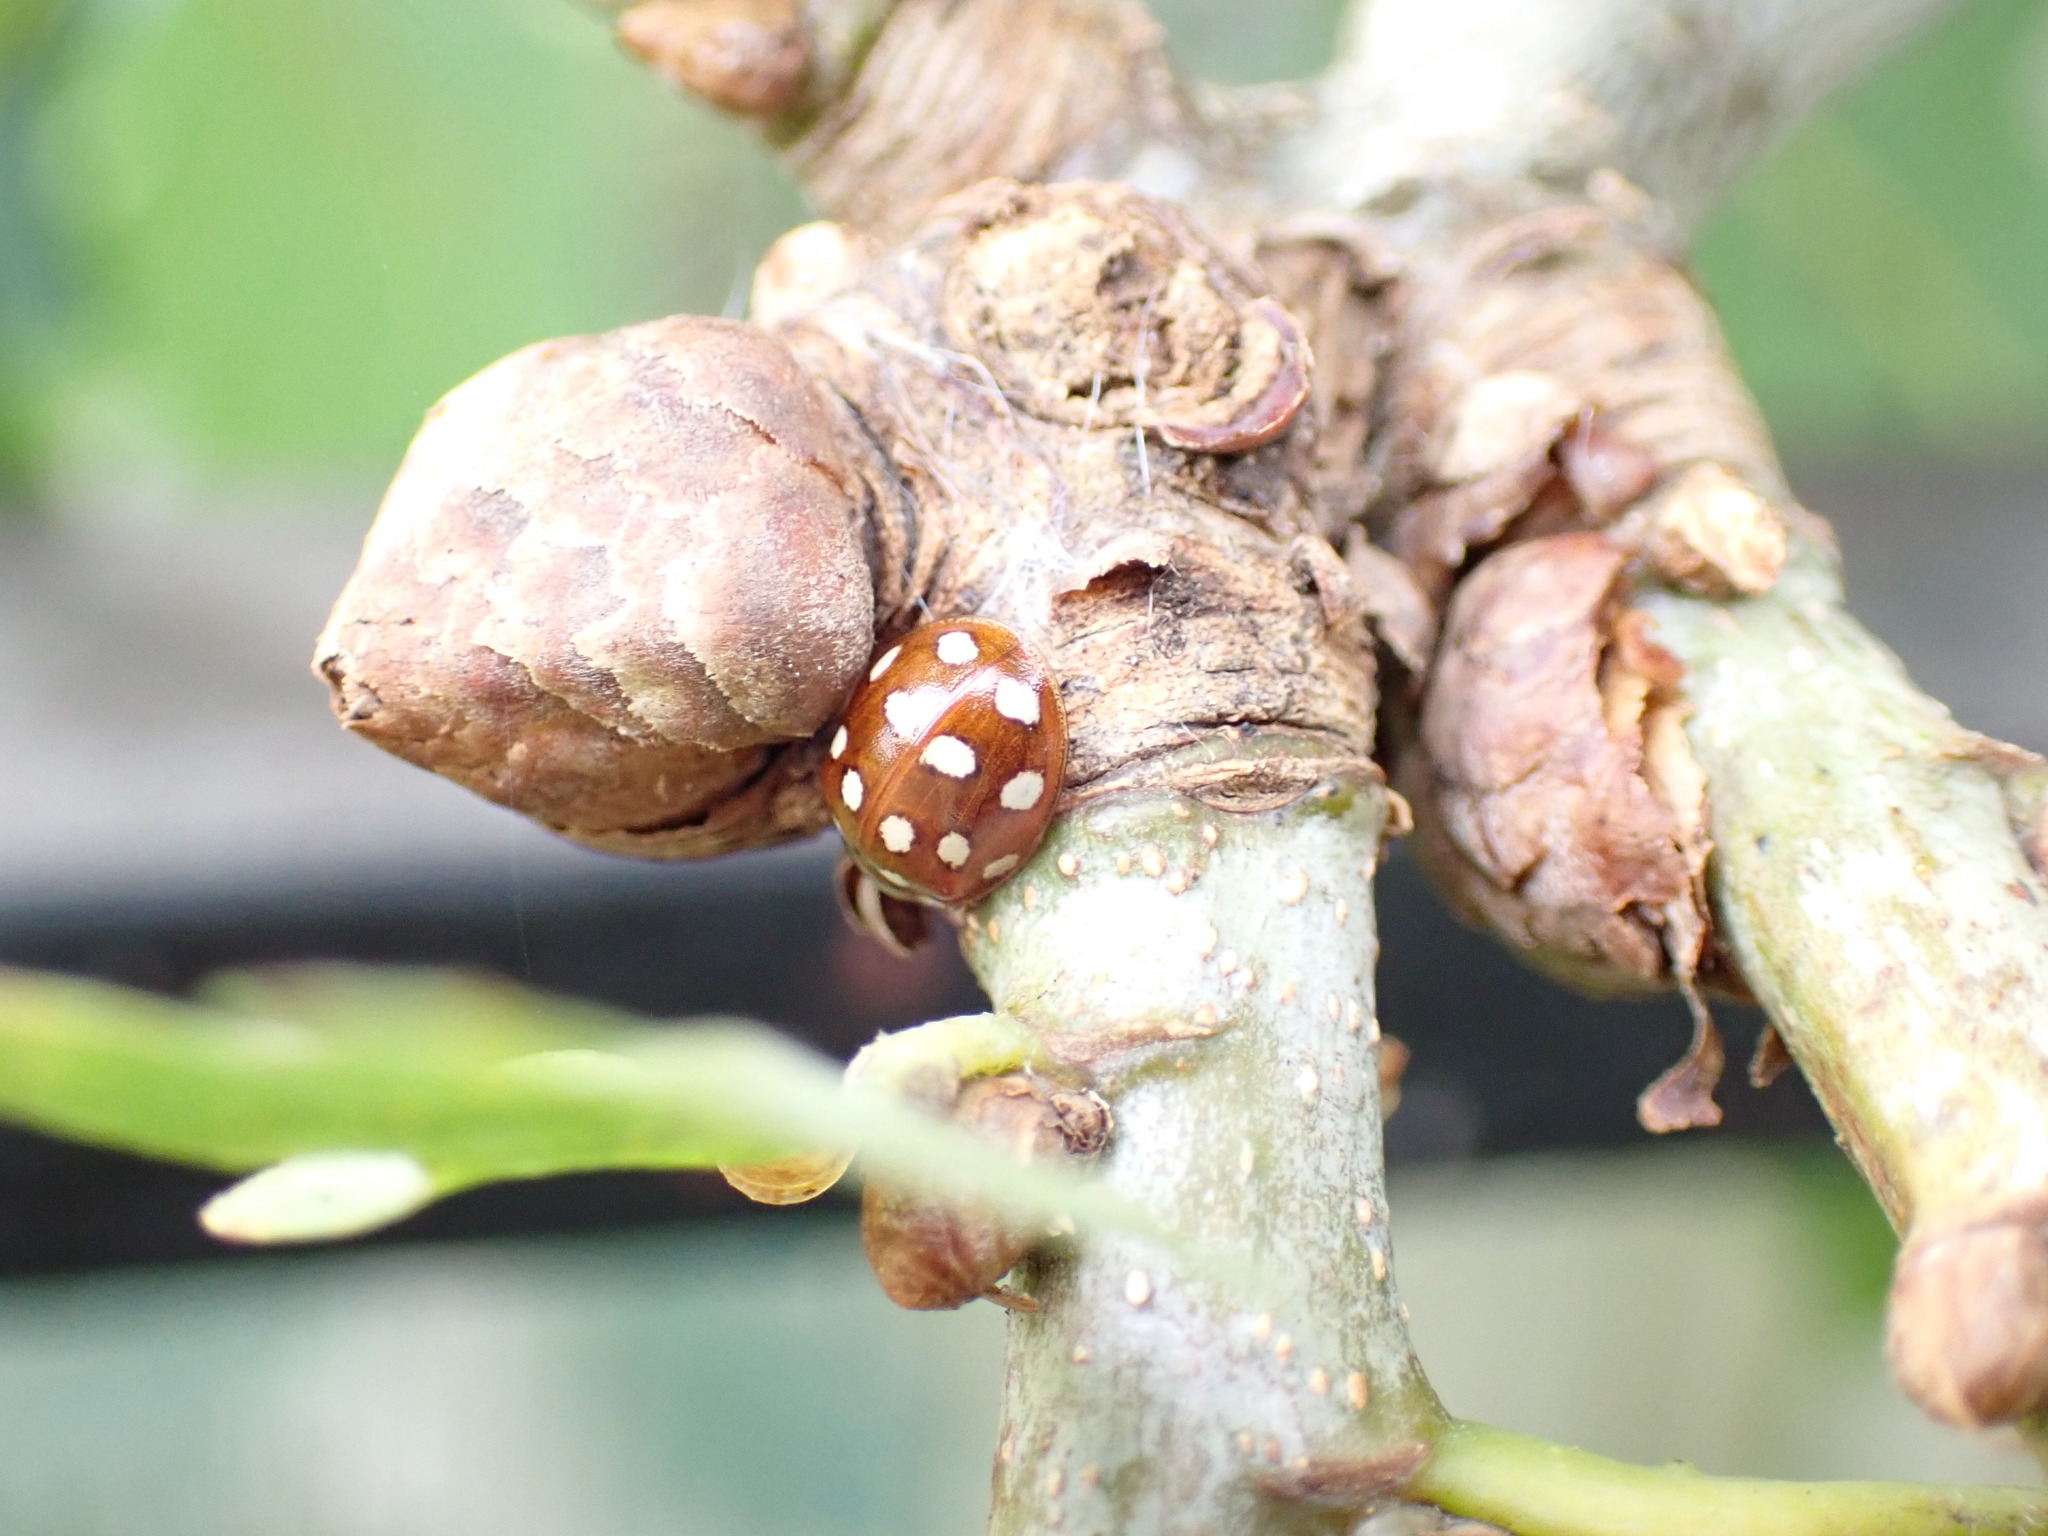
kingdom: Animalia
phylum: Arthropoda
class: Insecta
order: Coleoptera
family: Coccinellidae
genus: Calvia
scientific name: Calvia quatuordecimguttata
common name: Cream-spot ladybird
